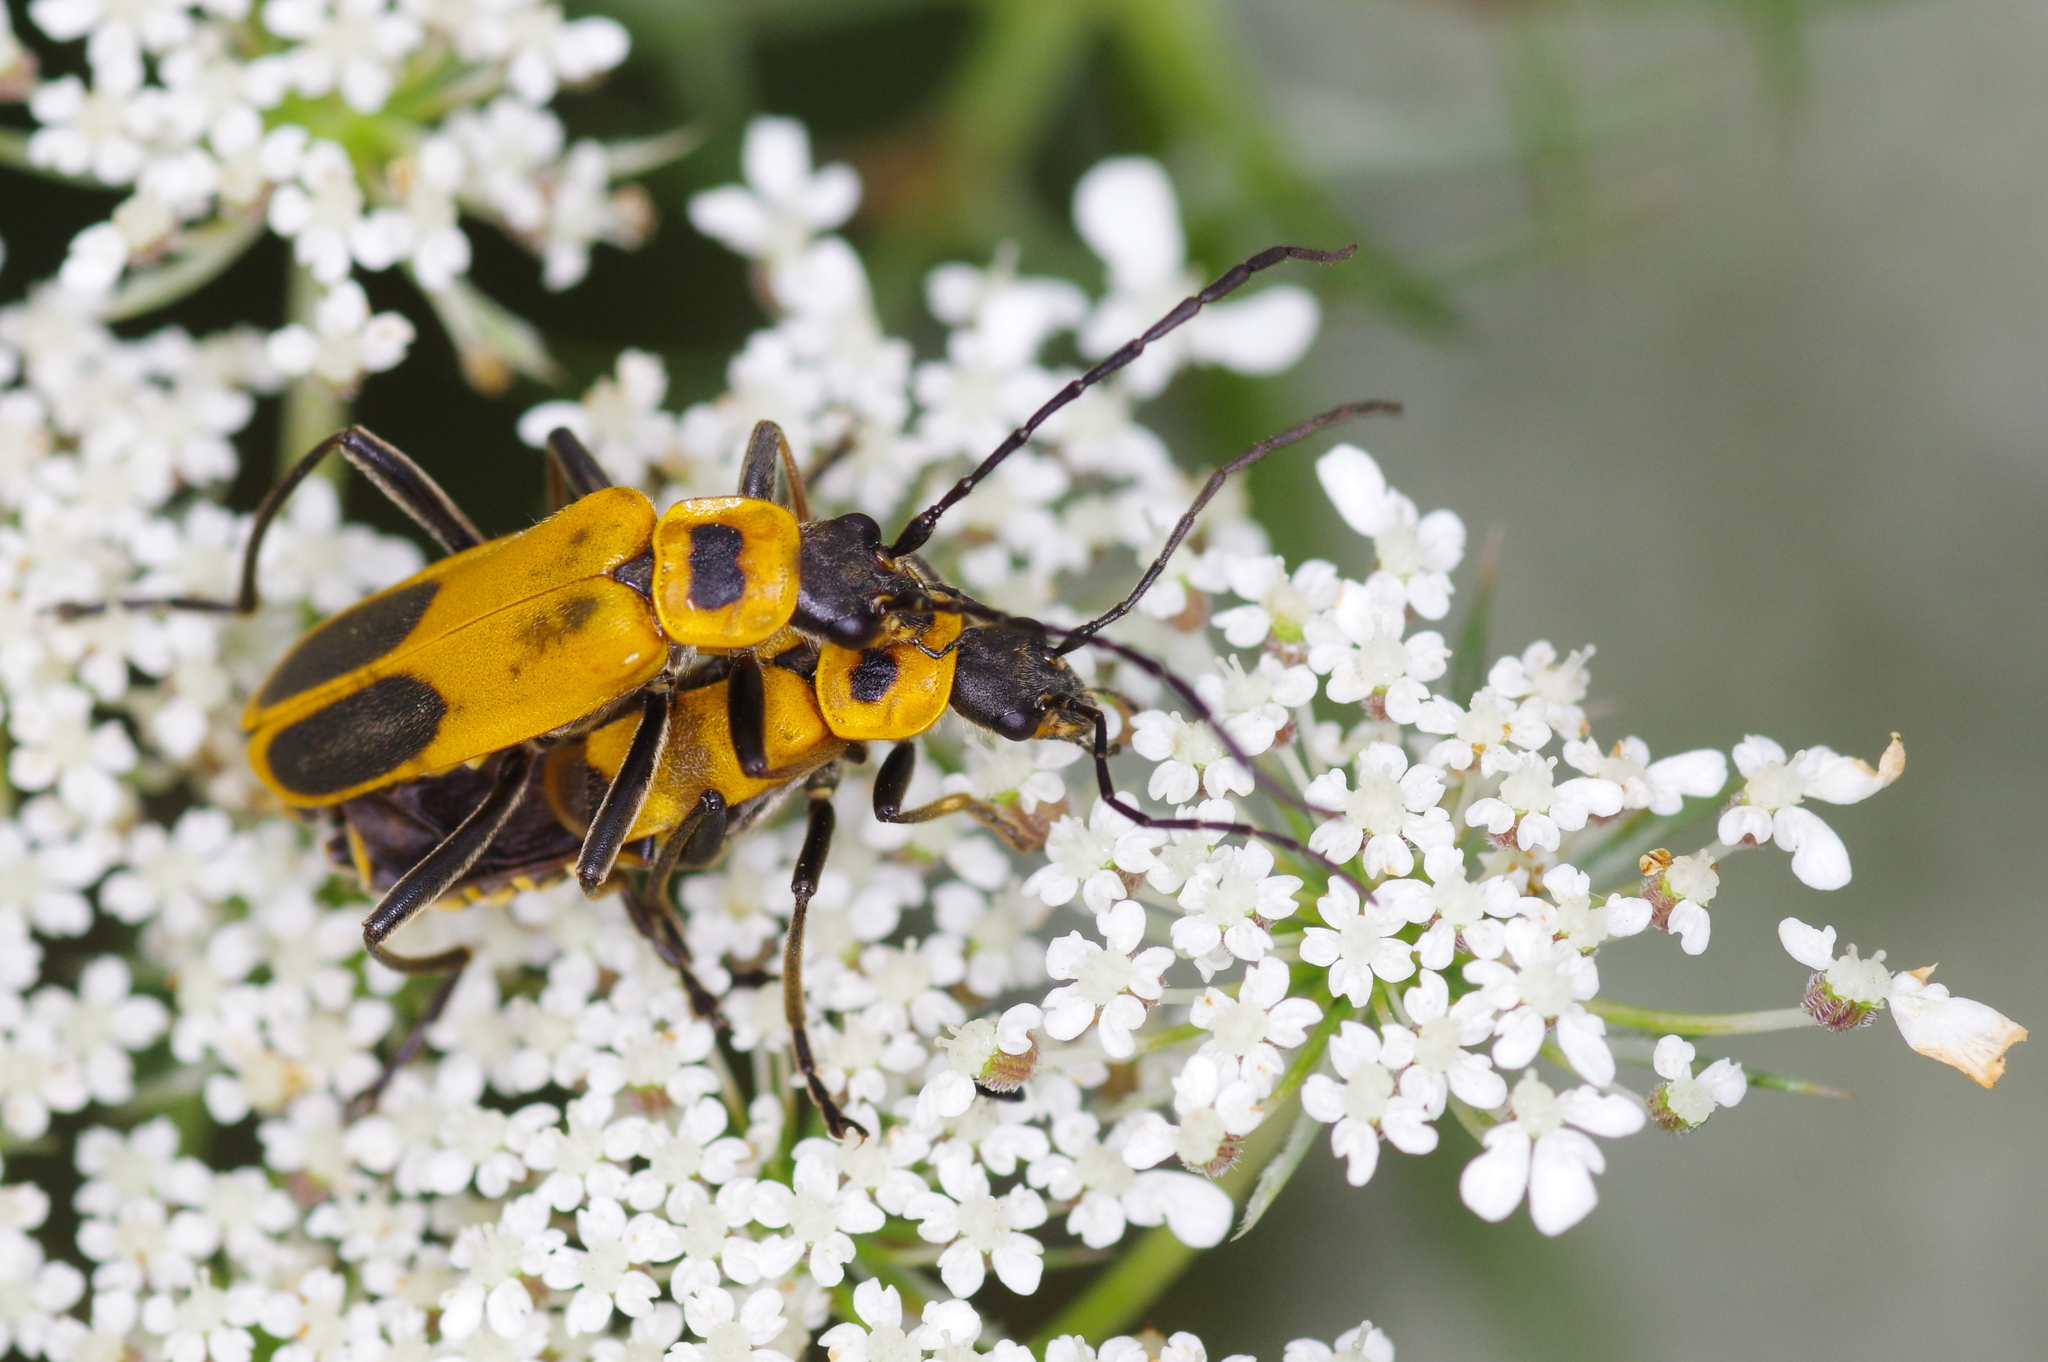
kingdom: Animalia
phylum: Arthropoda
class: Insecta
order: Coleoptera
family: Cantharidae
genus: Chauliognathus
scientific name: Chauliognathus pensylvanicus
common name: Goldenrod soldier beetle
